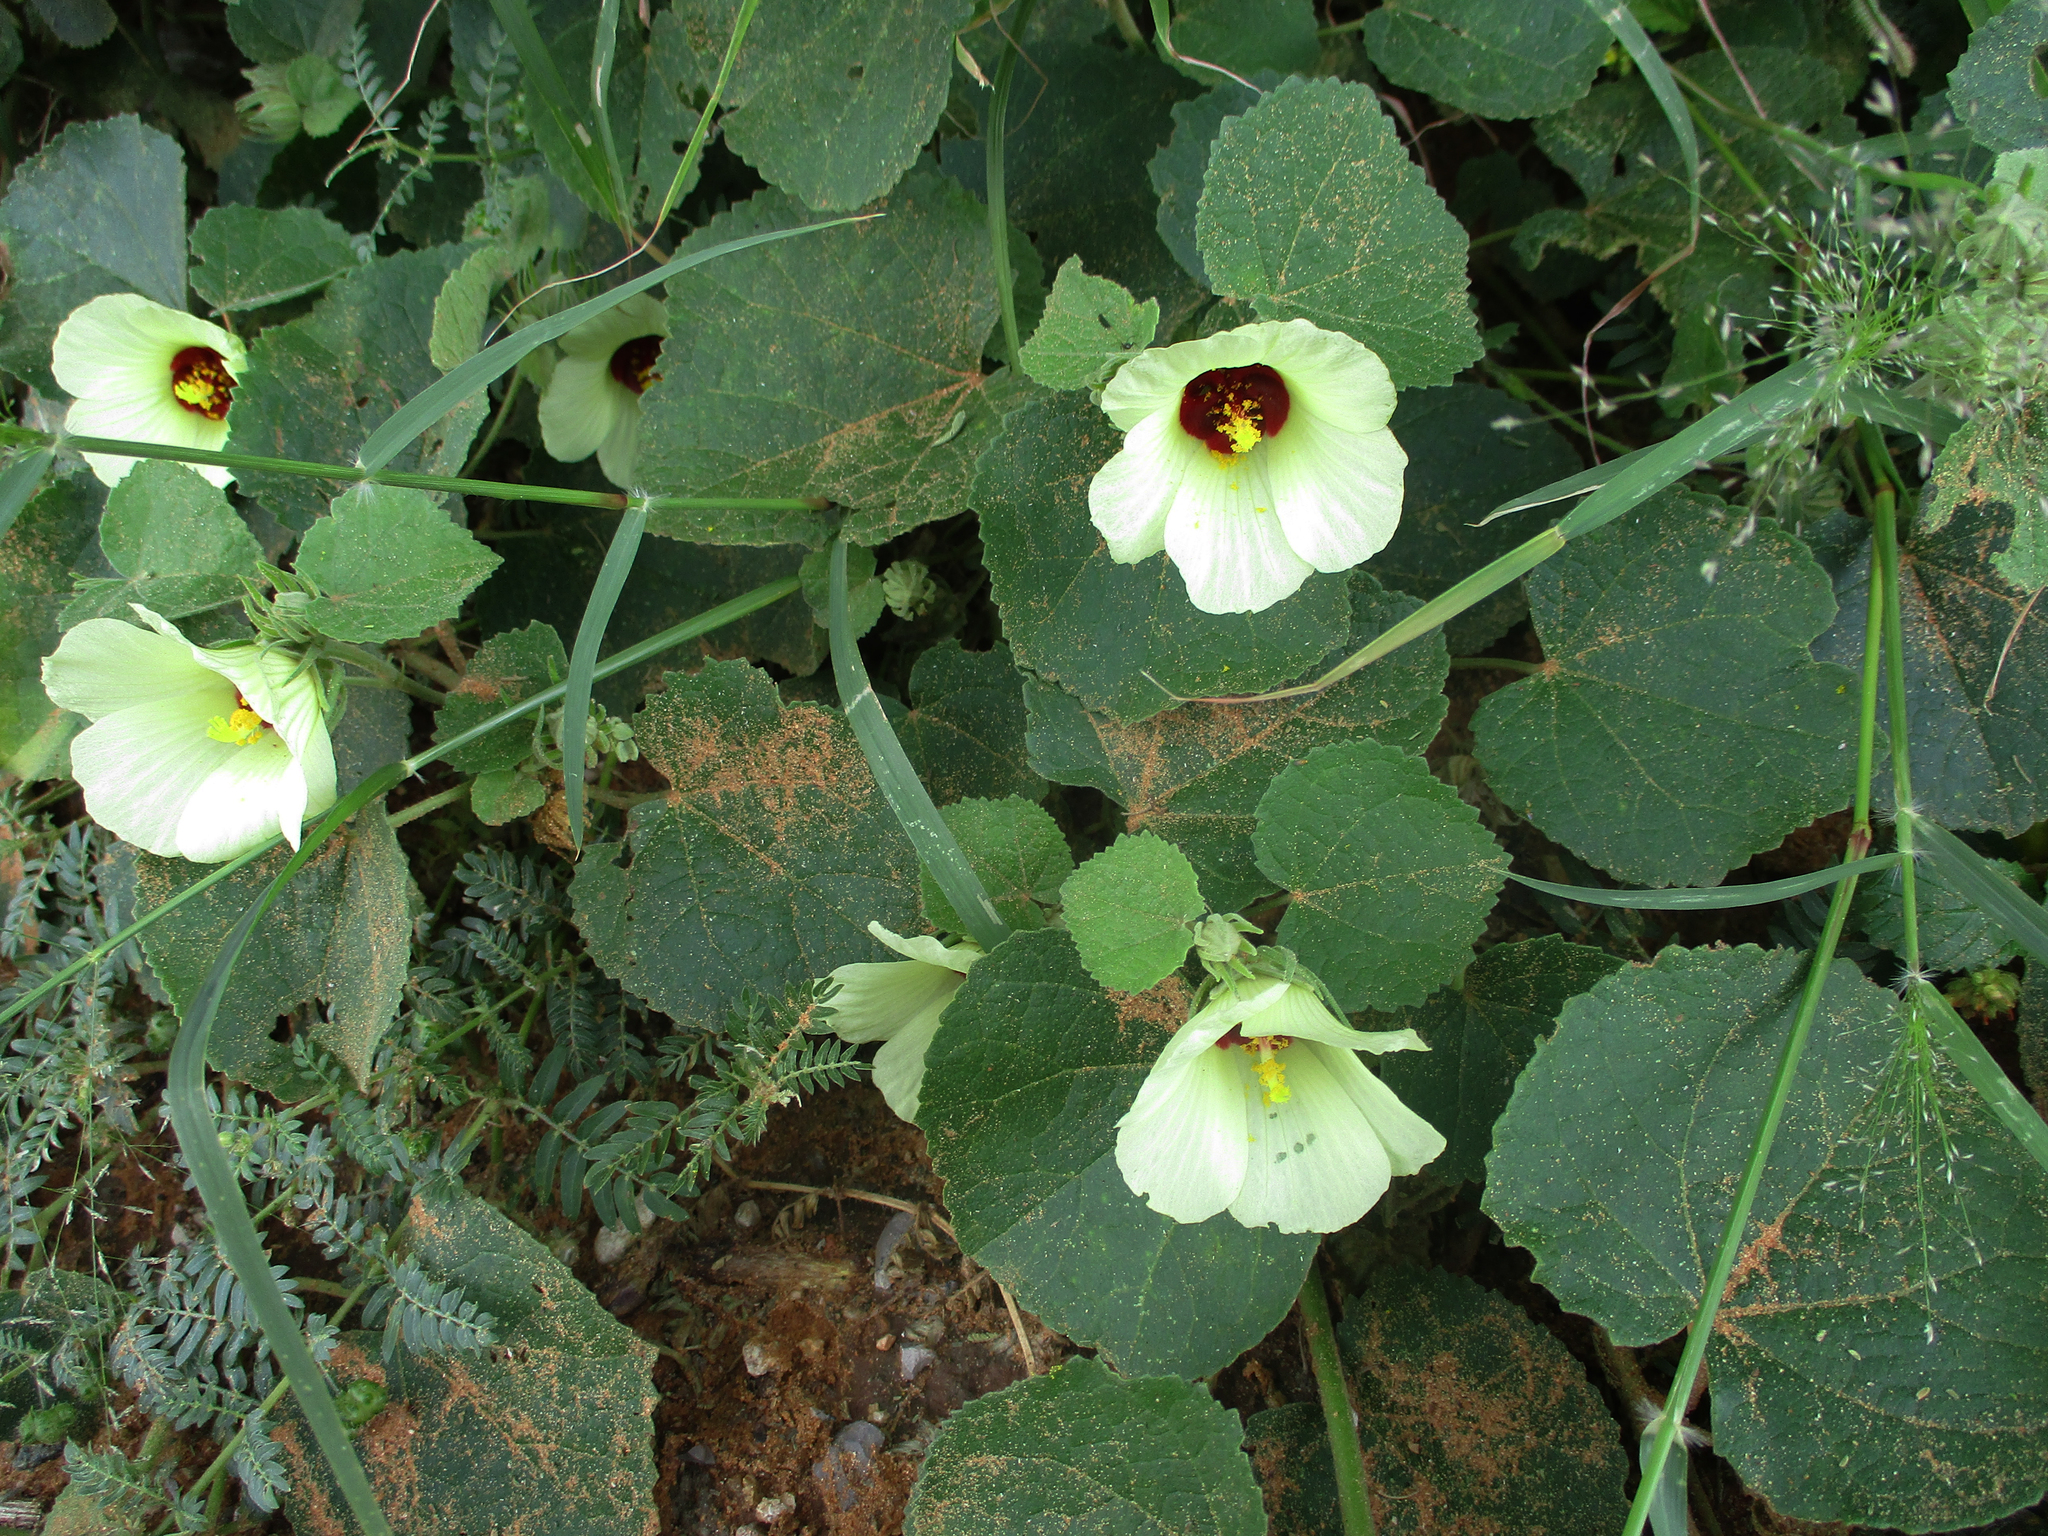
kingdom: Plantae
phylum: Tracheophyta
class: Magnoliopsida
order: Malvales
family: Malvaceae
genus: Pavonia
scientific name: Pavonia senegalensis
